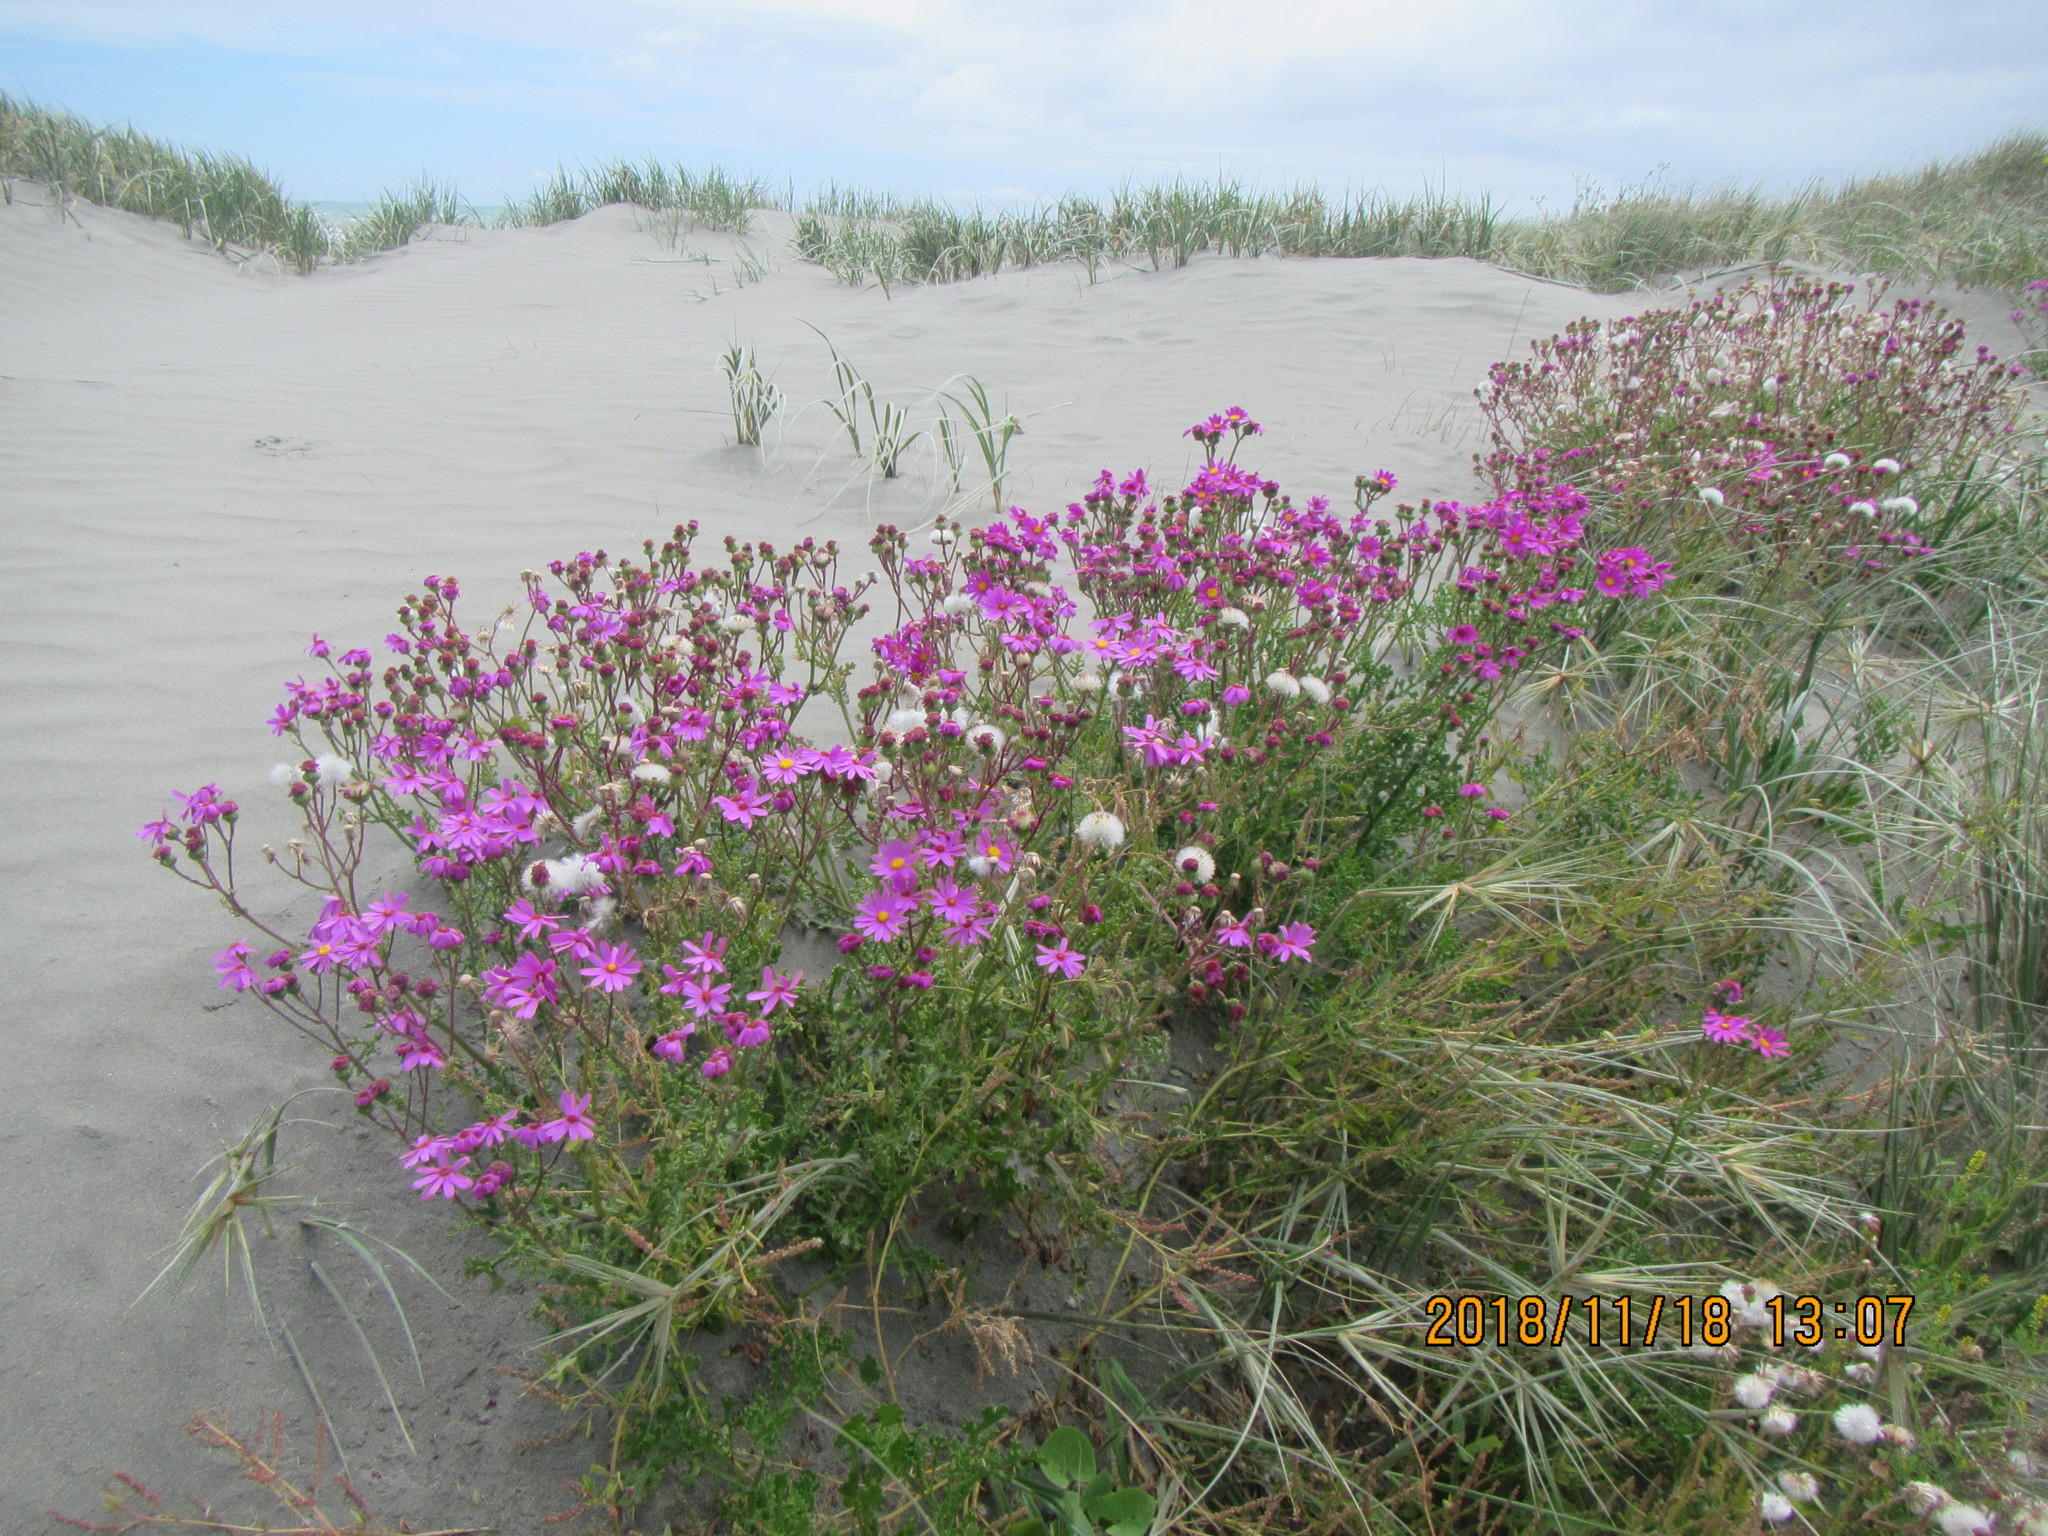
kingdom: Plantae
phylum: Tracheophyta
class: Magnoliopsida
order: Asterales
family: Asteraceae
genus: Senecio
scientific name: Senecio elegans
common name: Purple groundsel
